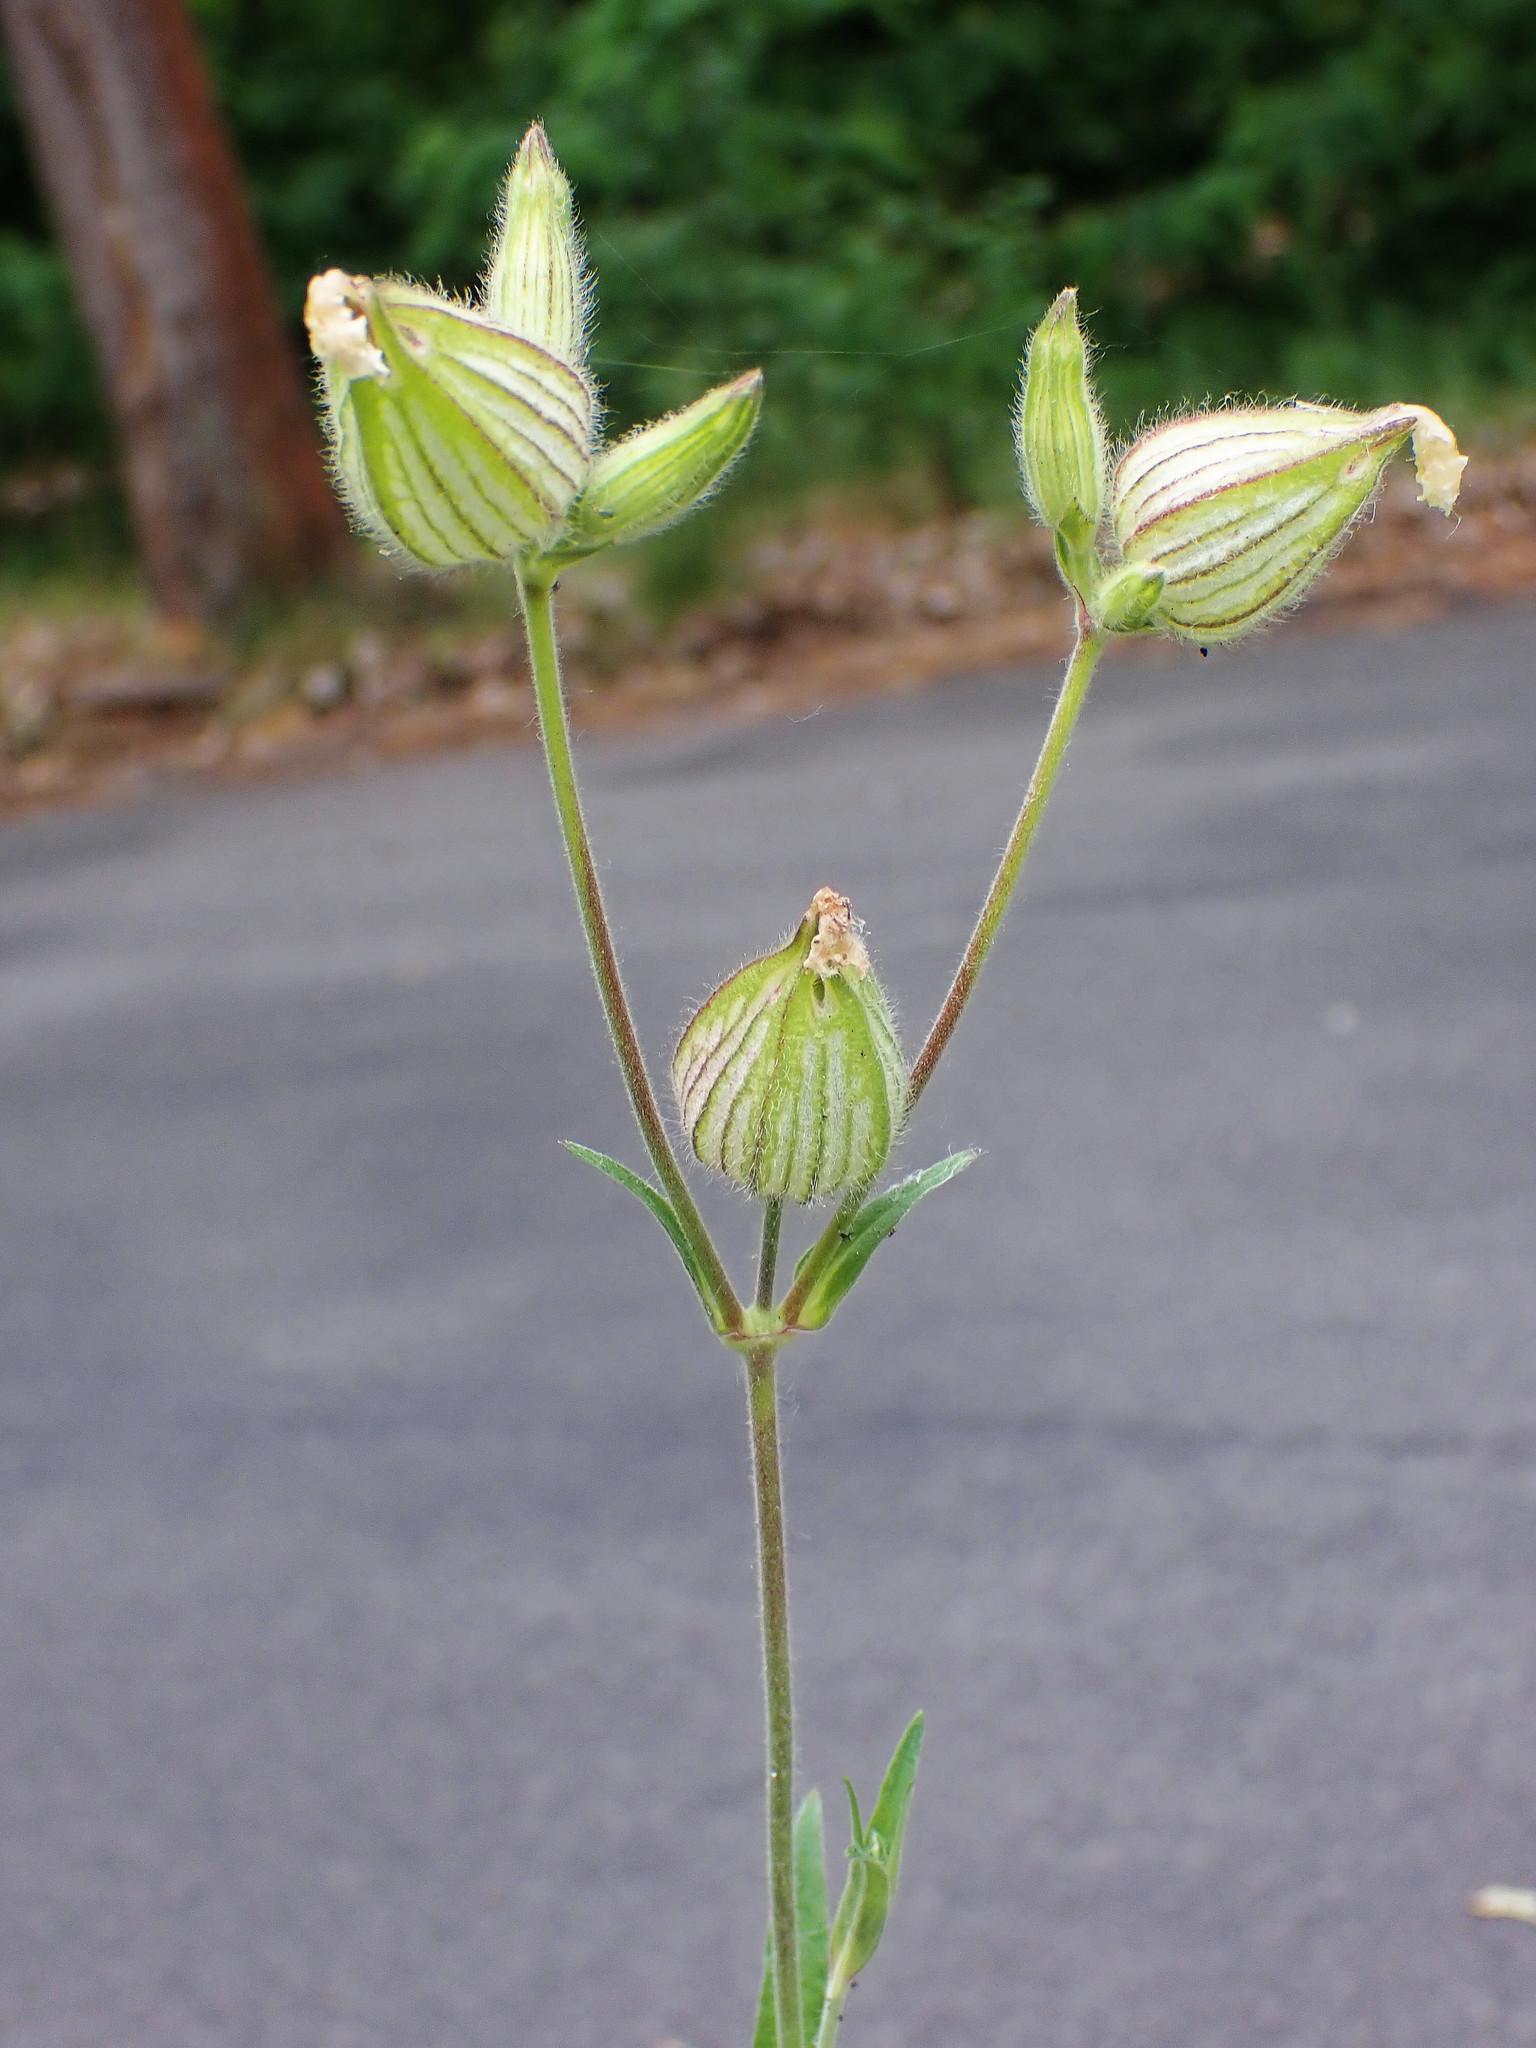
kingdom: Plantae
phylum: Tracheophyta
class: Magnoliopsida
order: Caryophyllales
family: Caryophyllaceae
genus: Silene
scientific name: Silene latifolia
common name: White campion
